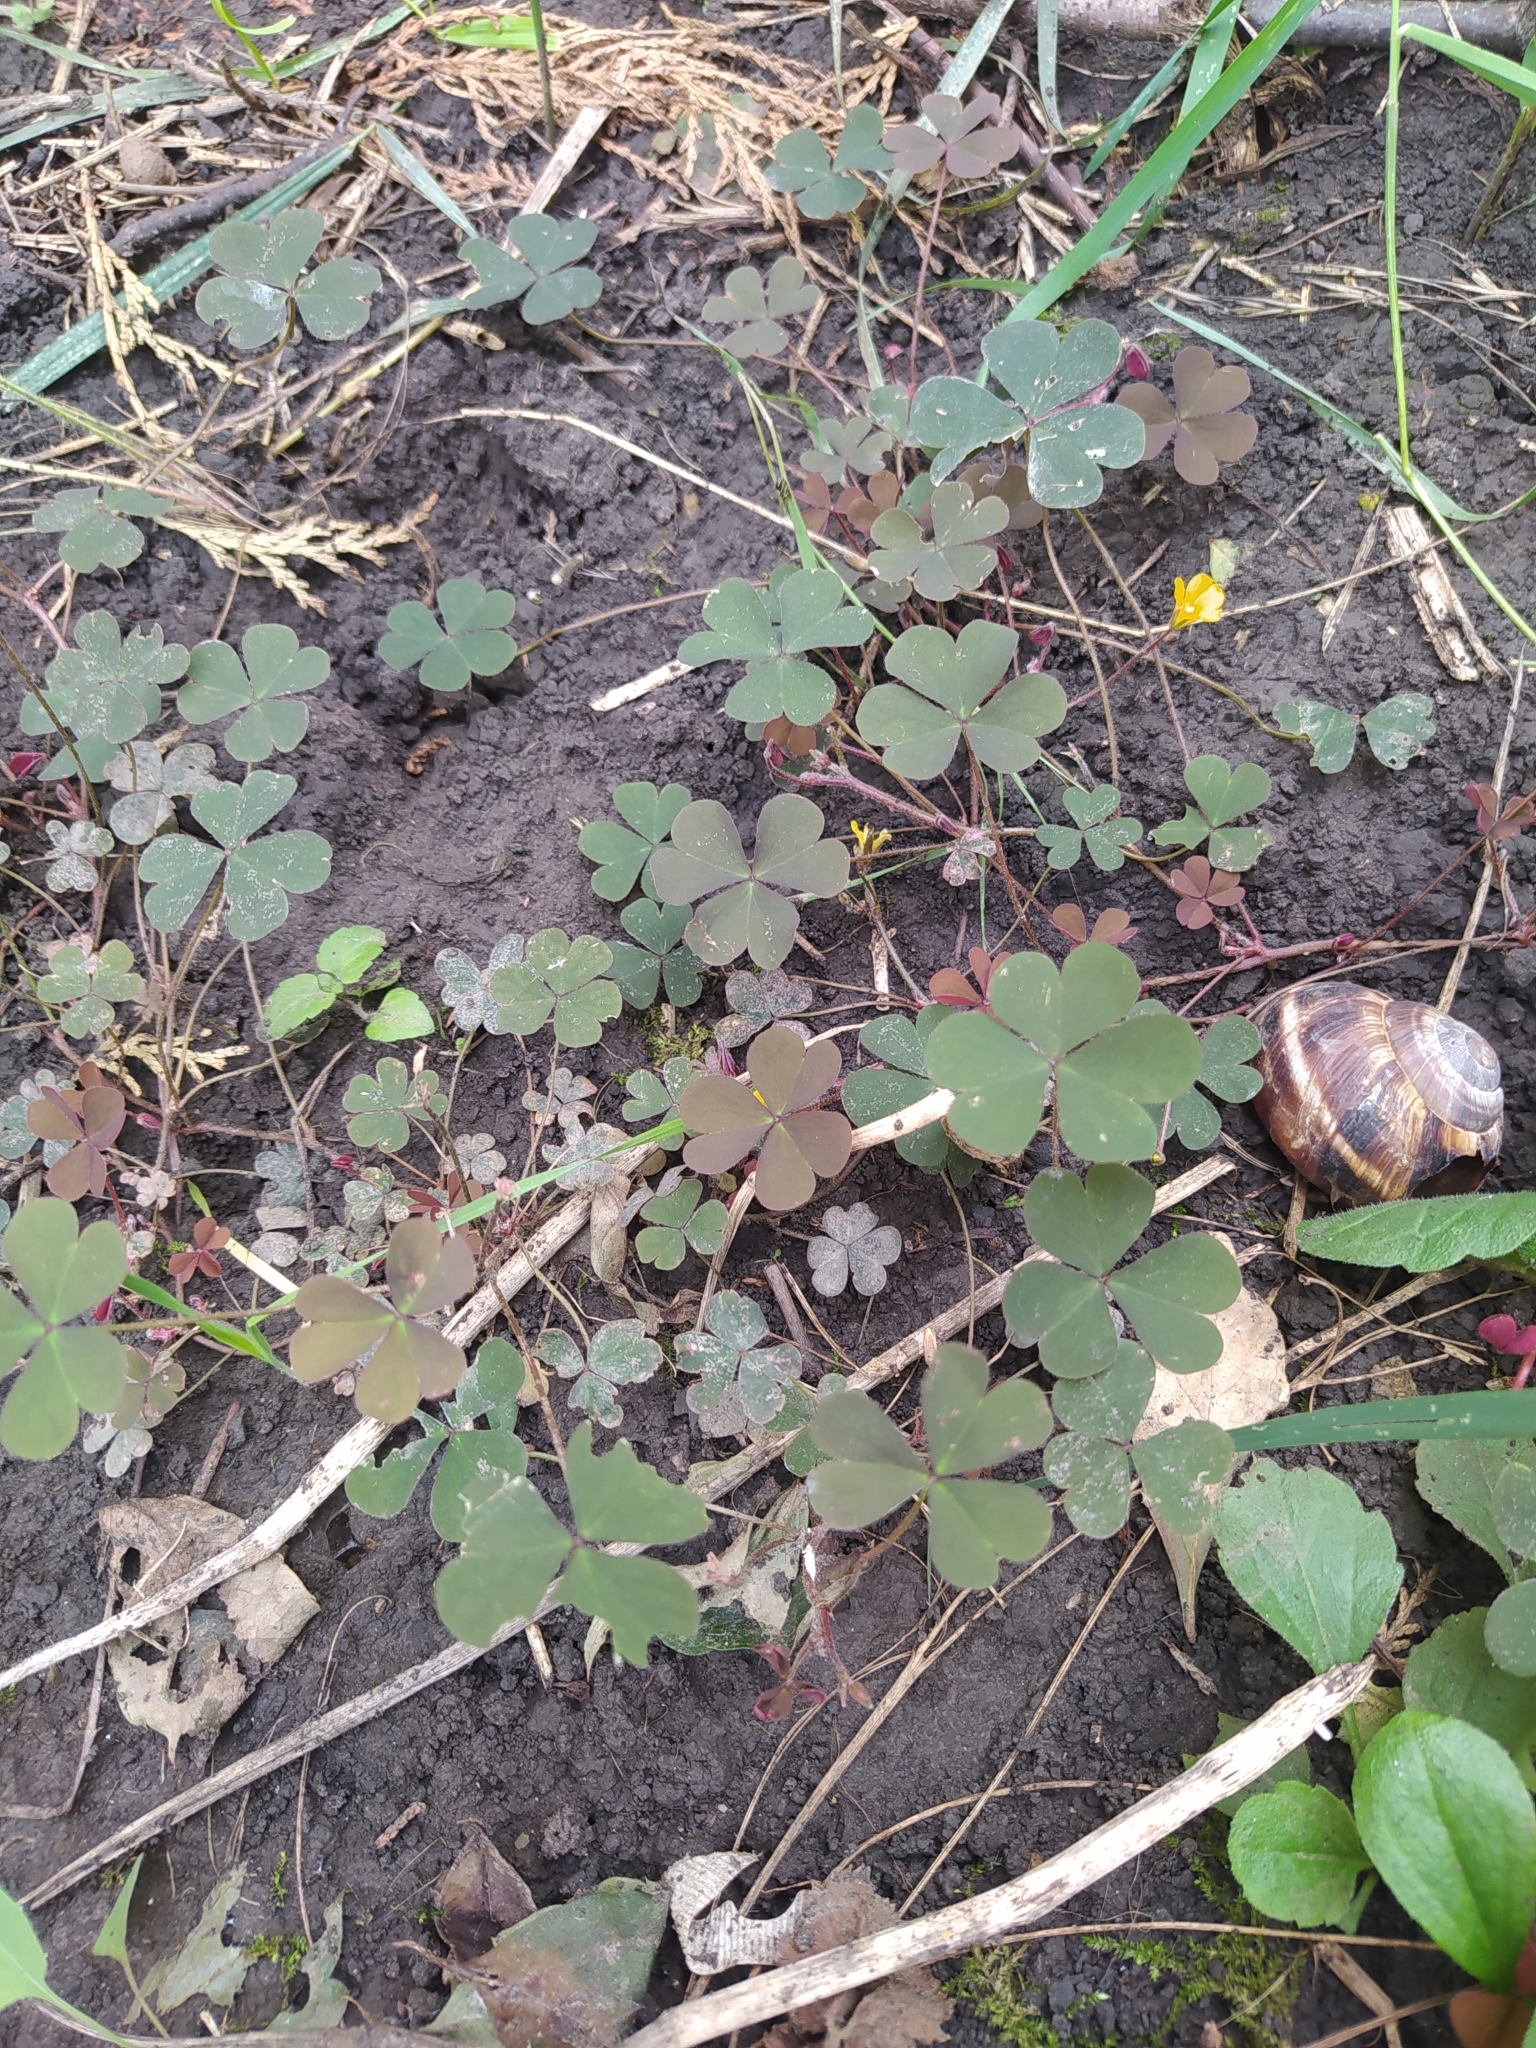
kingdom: Plantae
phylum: Tracheophyta
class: Magnoliopsida
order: Oxalidales
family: Oxalidaceae
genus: Oxalis
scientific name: Oxalis corniculata
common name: Procumbent yellow-sorrel
